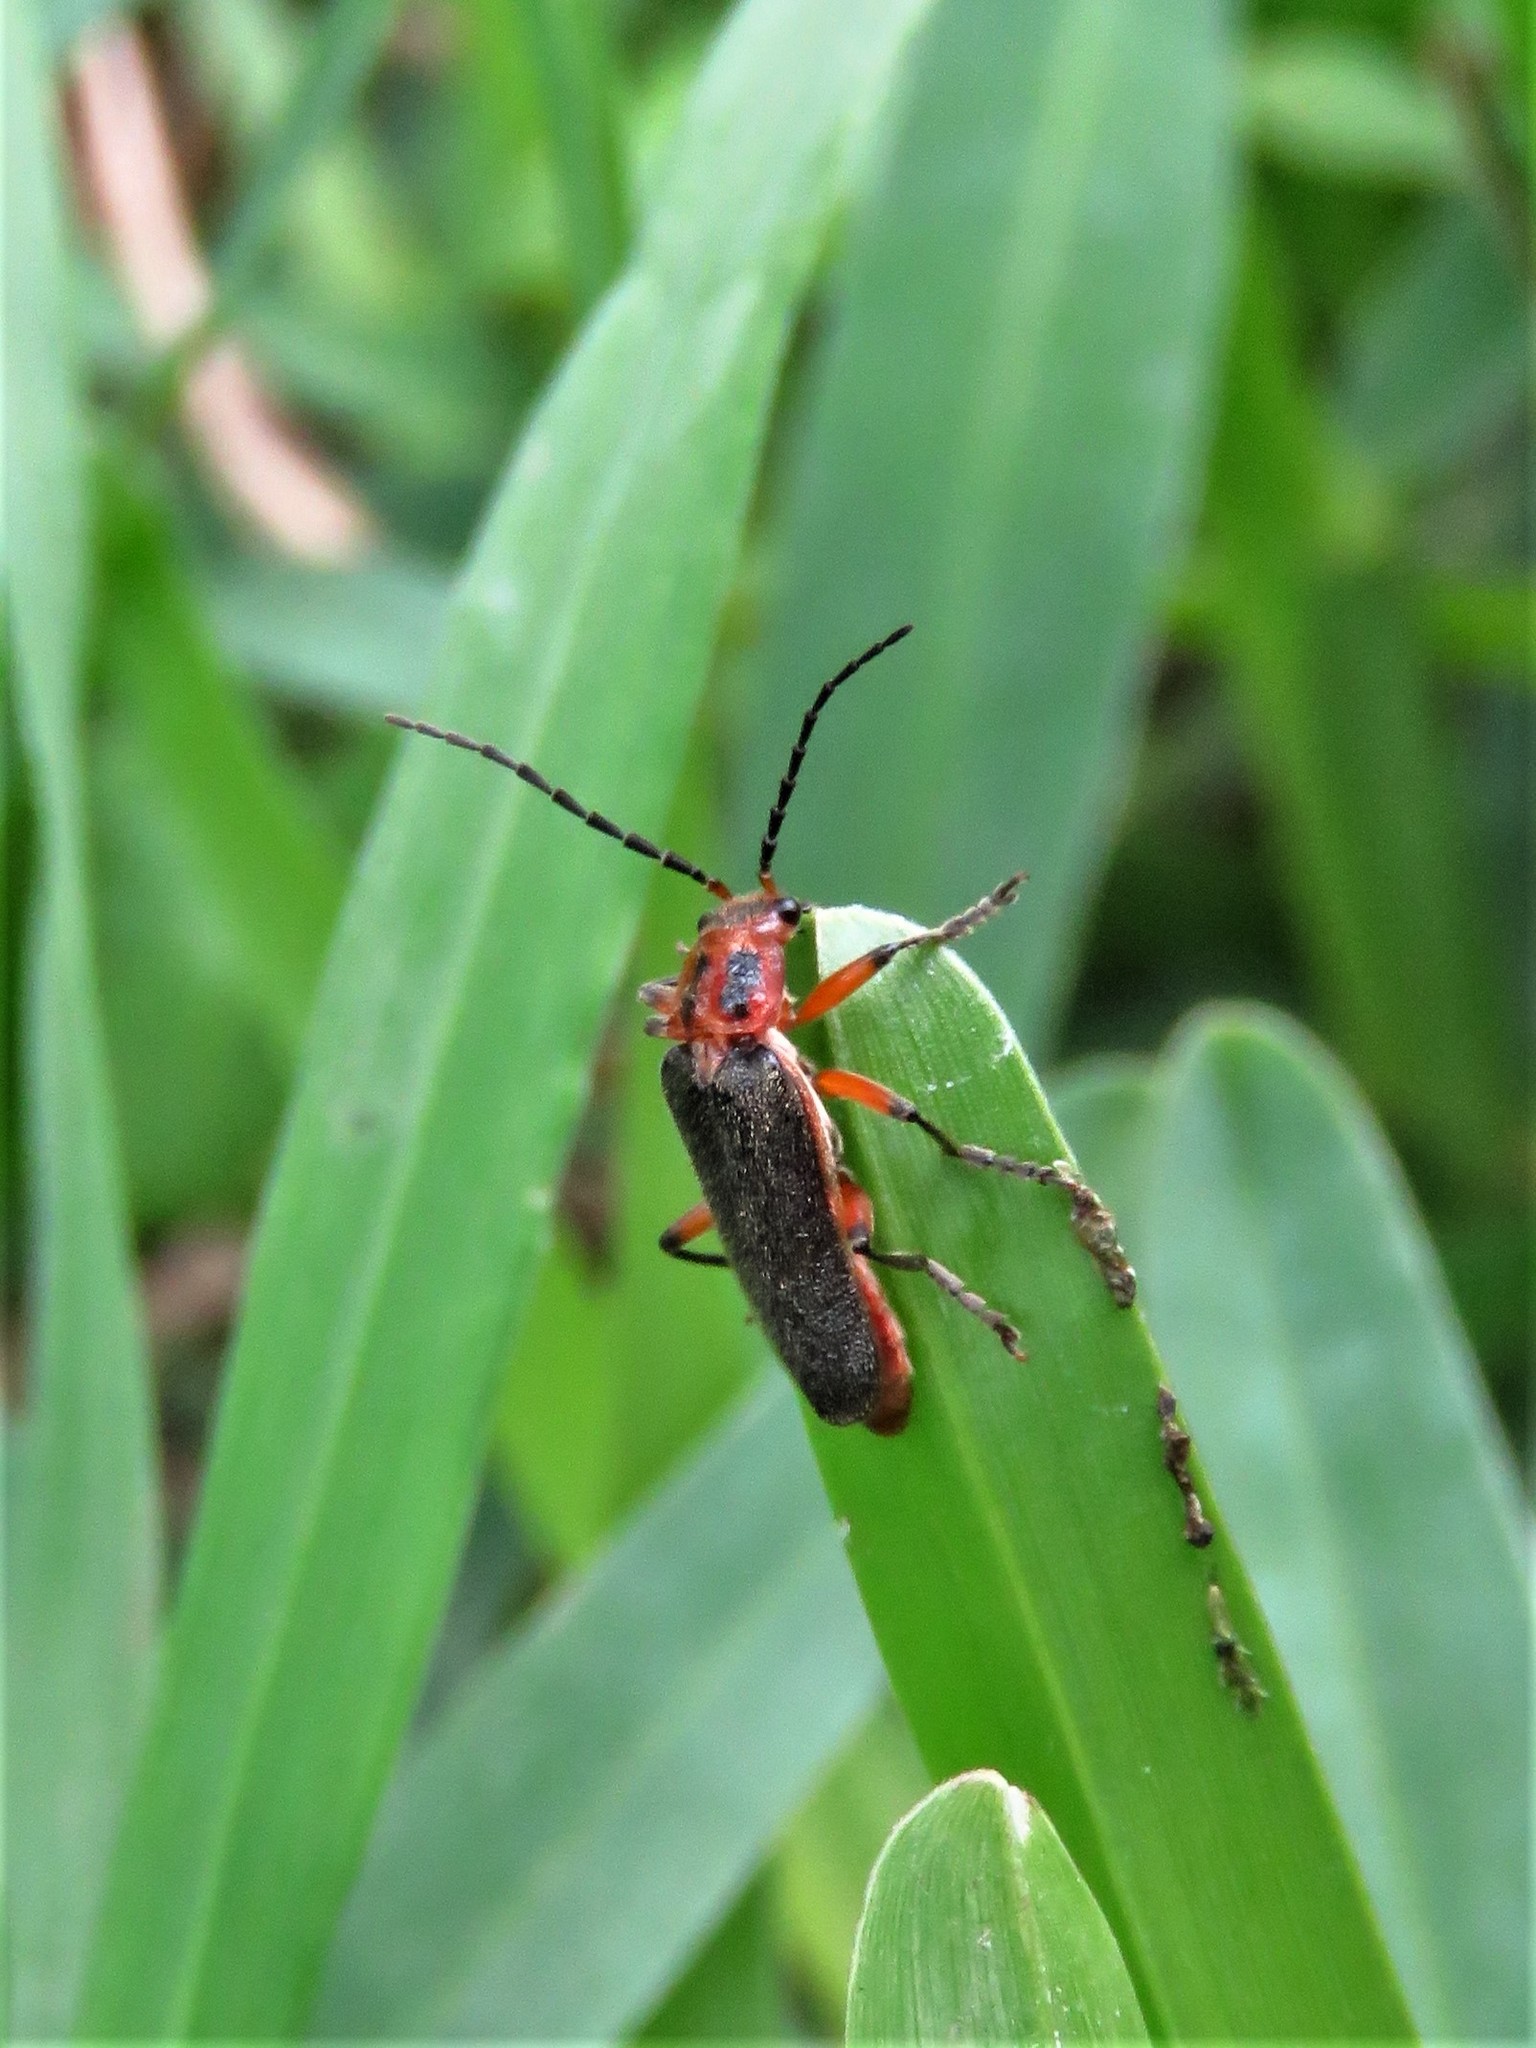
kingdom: Animalia
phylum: Arthropoda
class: Insecta
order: Coleoptera
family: Cantharidae
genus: Atalantycha
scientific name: Atalantycha bilineata
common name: Two-lined leatherwing
